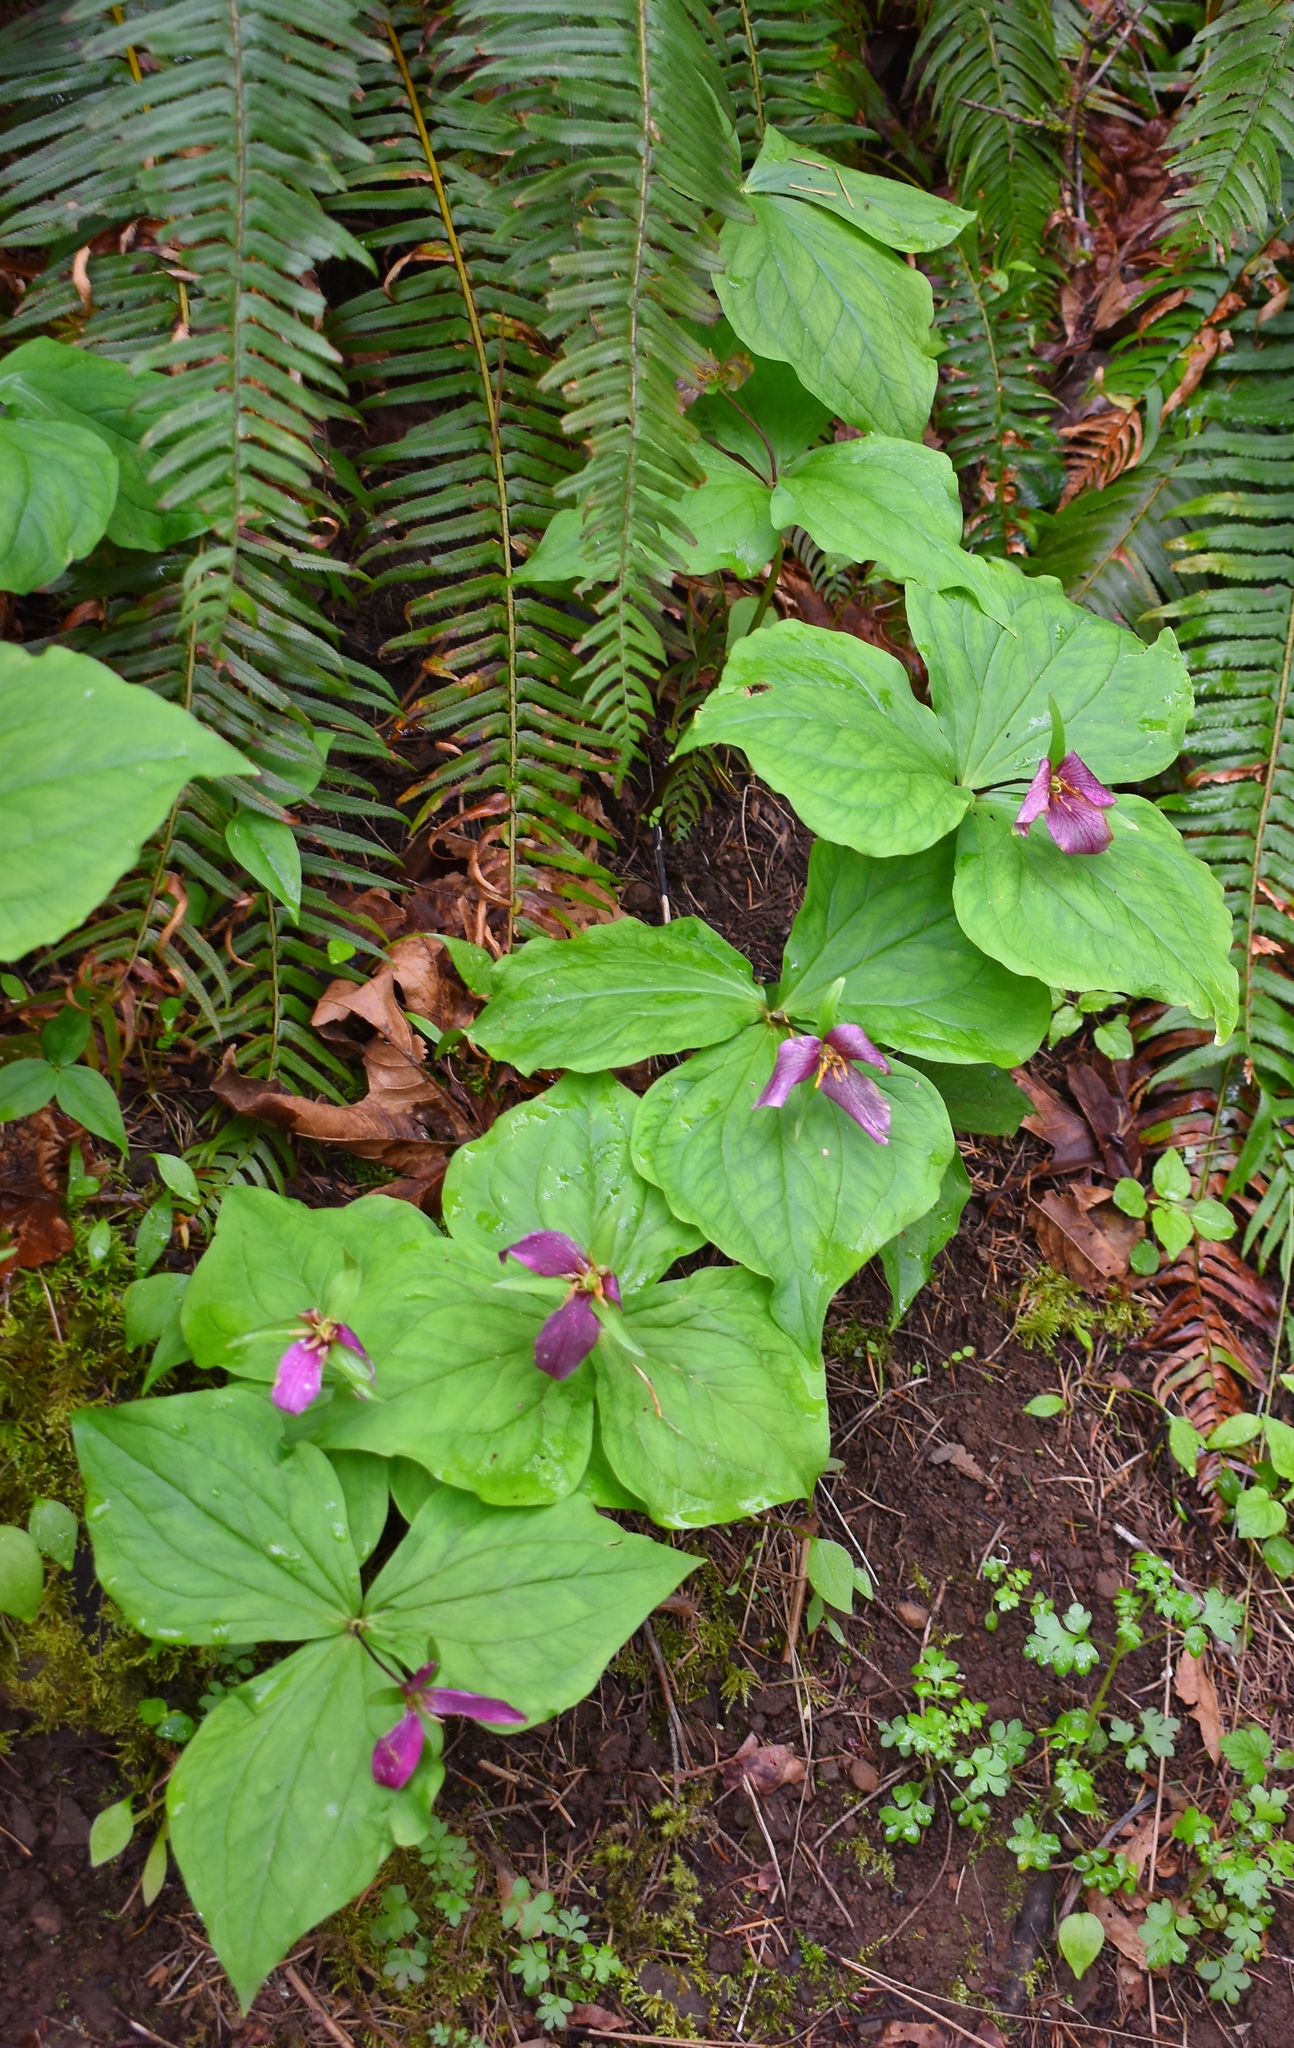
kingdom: Plantae
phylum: Tracheophyta
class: Liliopsida
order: Liliales
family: Melanthiaceae
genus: Trillium
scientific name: Trillium ovatum
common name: Pacific trillium
